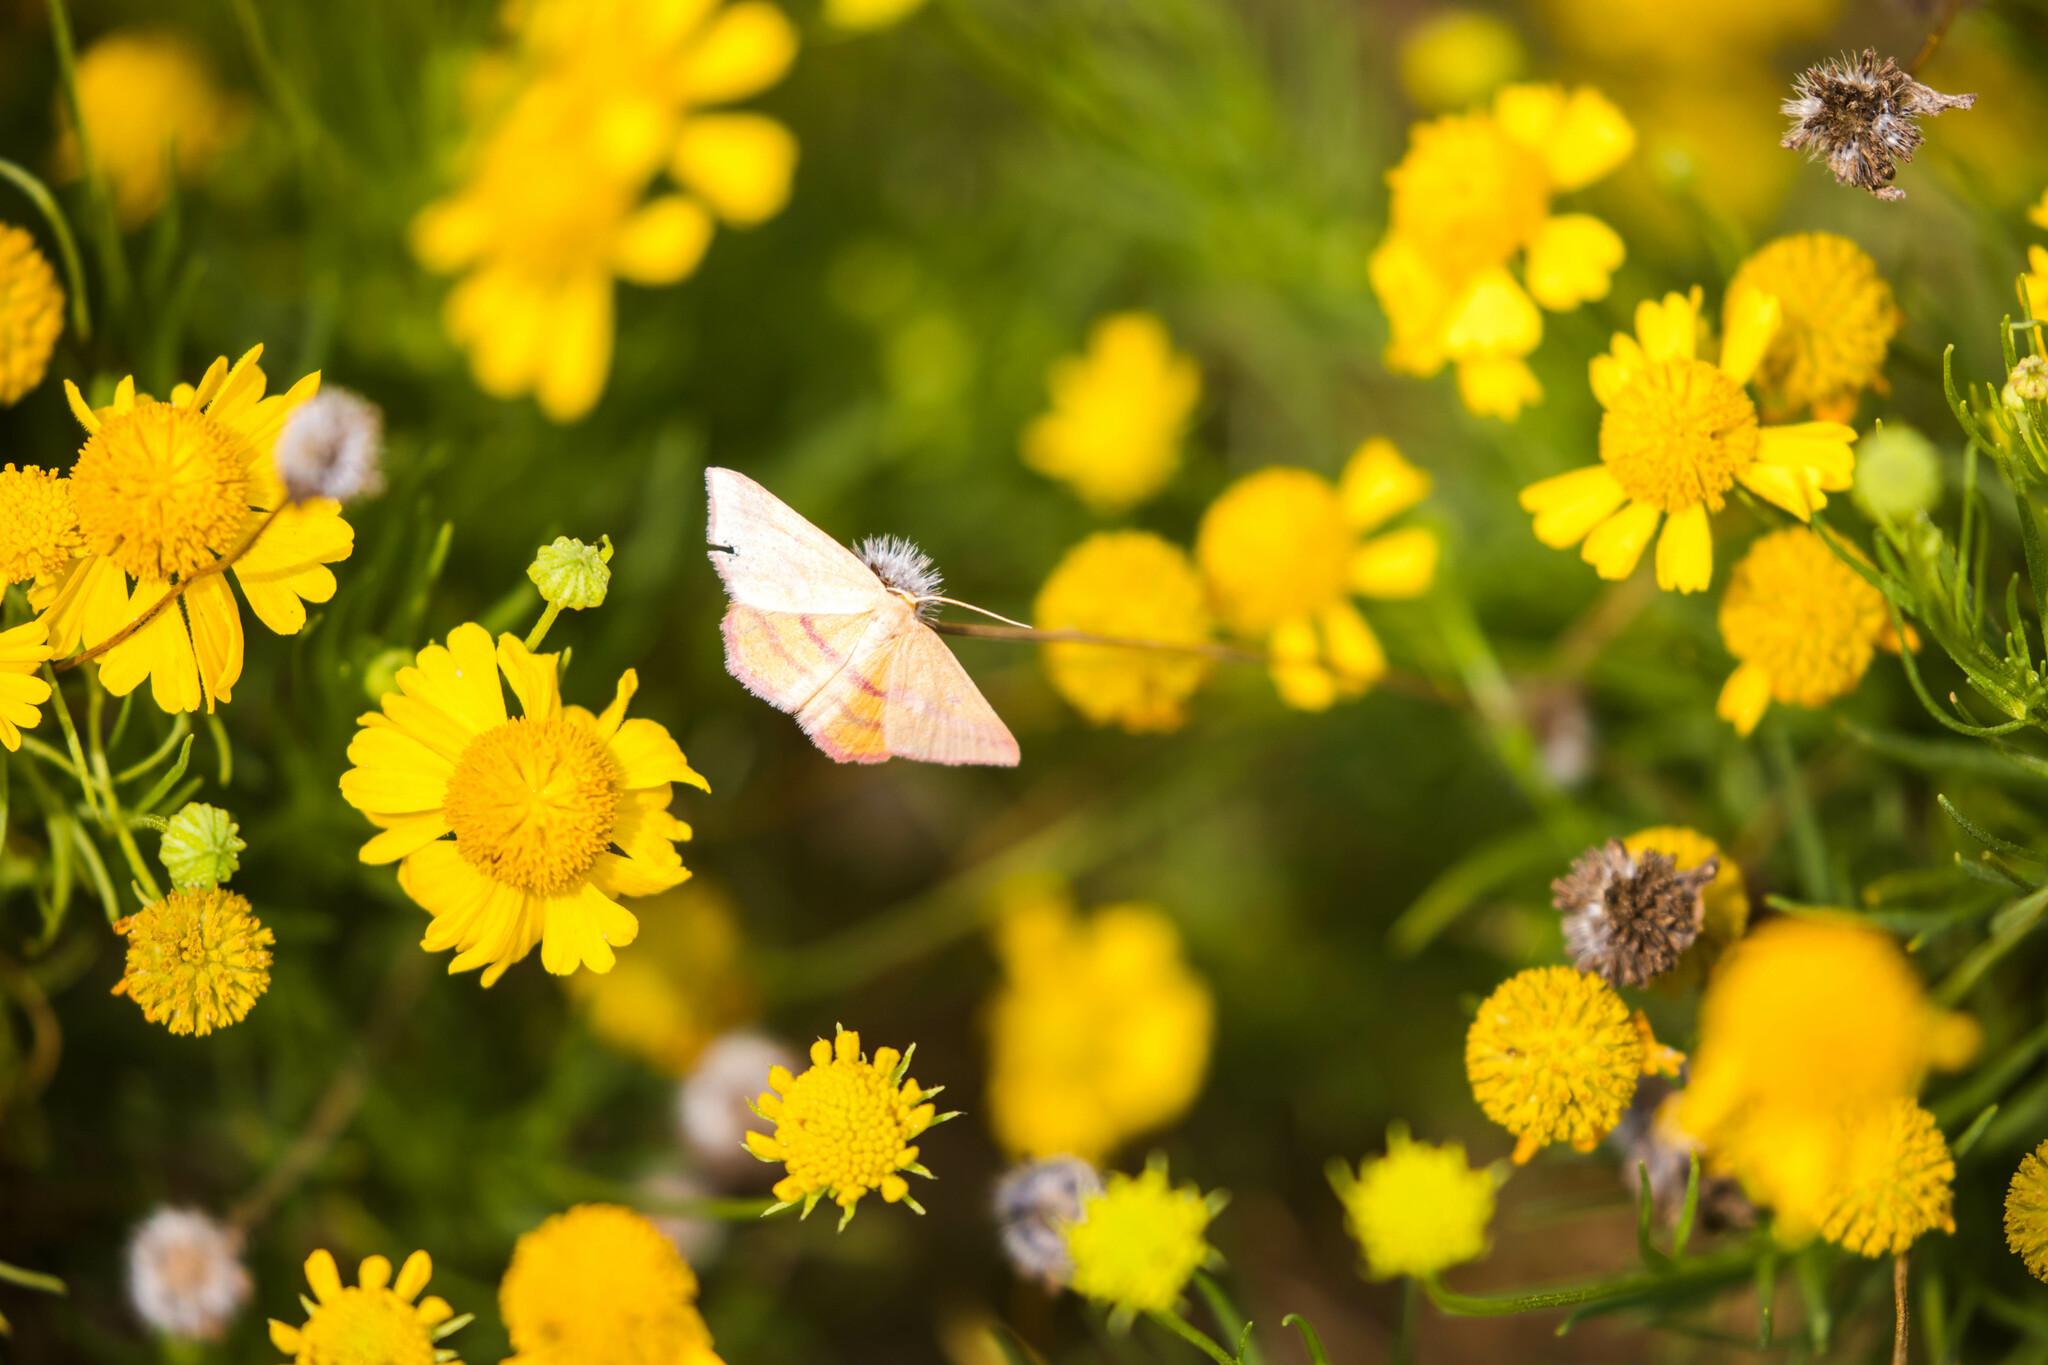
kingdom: Animalia
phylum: Arthropoda
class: Insecta
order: Lepidoptera
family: Geometridae
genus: Haematopis
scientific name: Haematopis grataria
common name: Chickweed geometer
